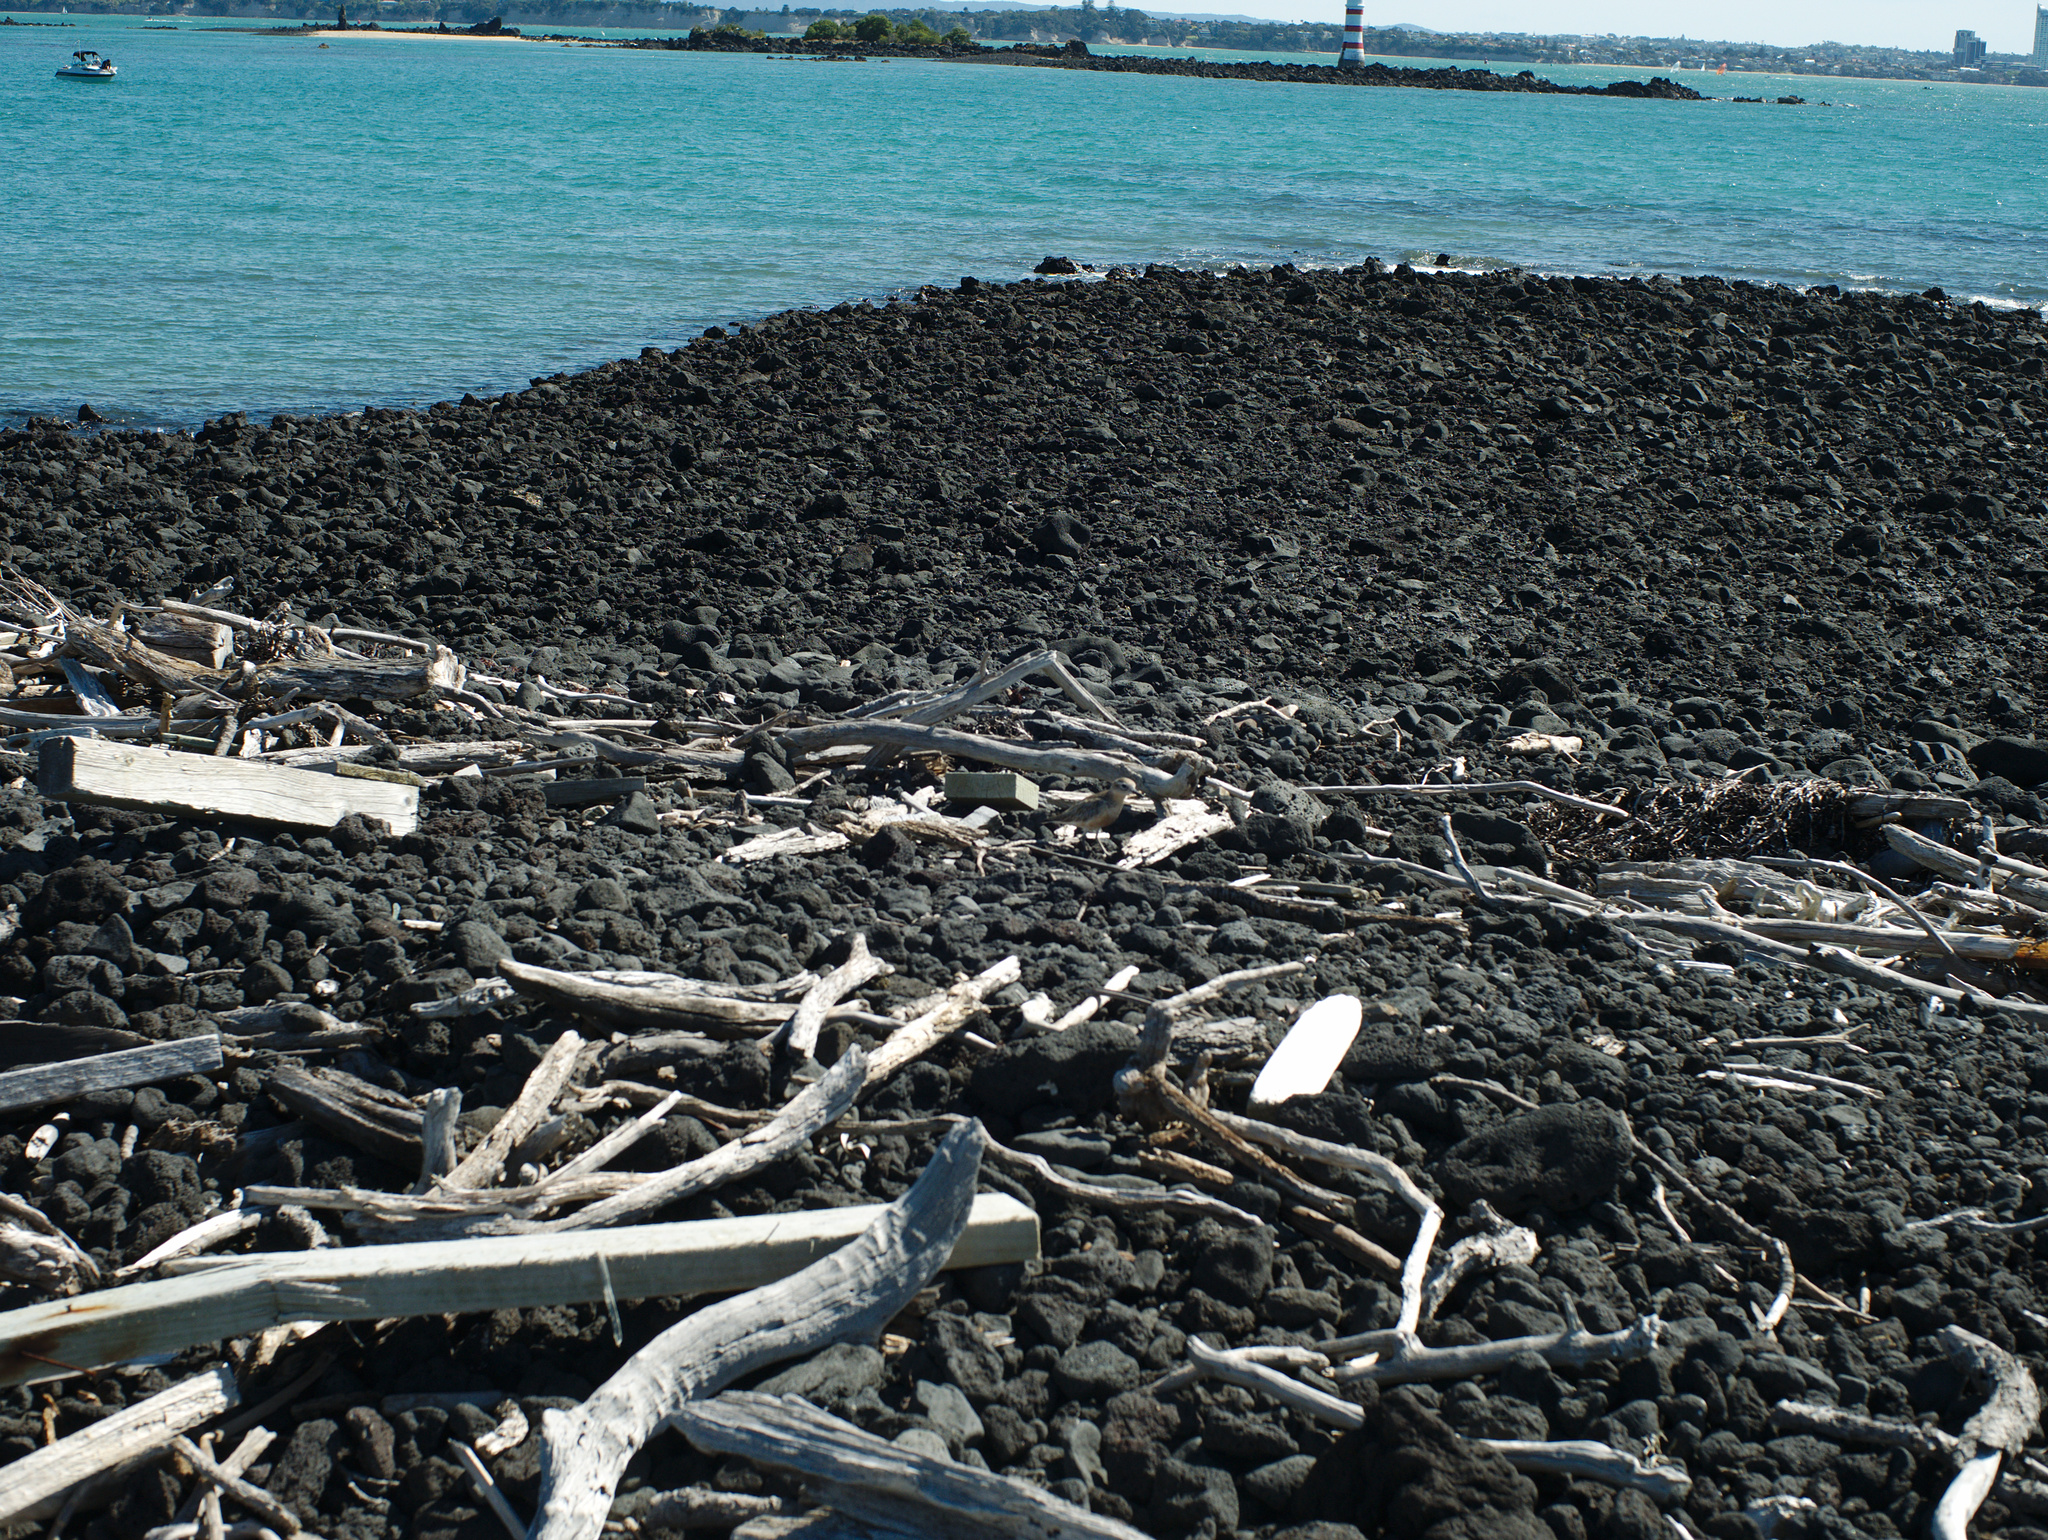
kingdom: Animalia
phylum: Chordata
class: Aves
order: Charadriiformes
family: Charadriidae
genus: Anarhynchus
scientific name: Anarhynchus
